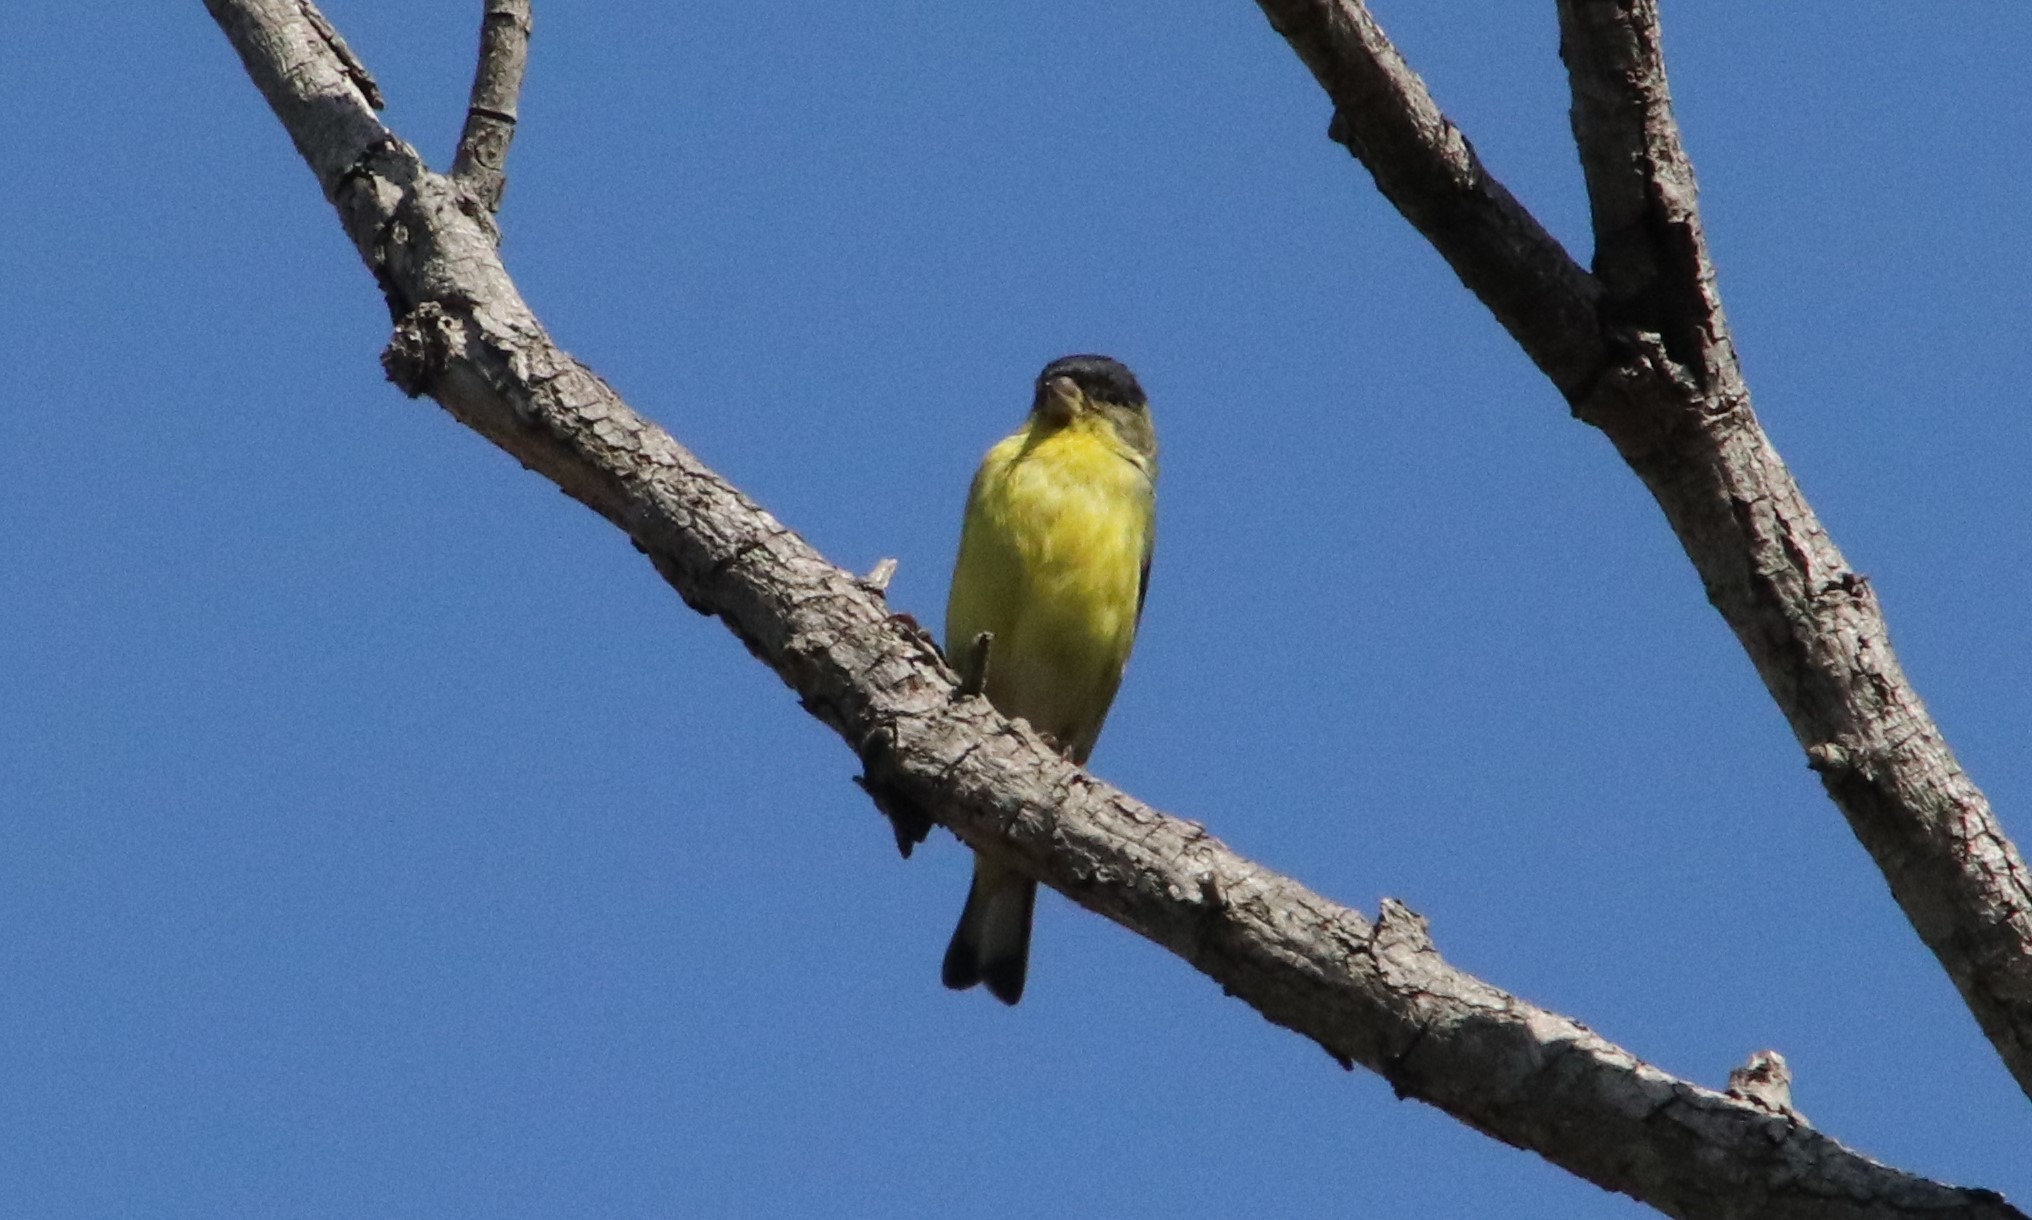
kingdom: Animalia
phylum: Chordata
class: Aves
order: Passeriformes
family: Fringillidae
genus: Spinus
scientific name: Spinus psaltria
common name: Lesser goldfinch
